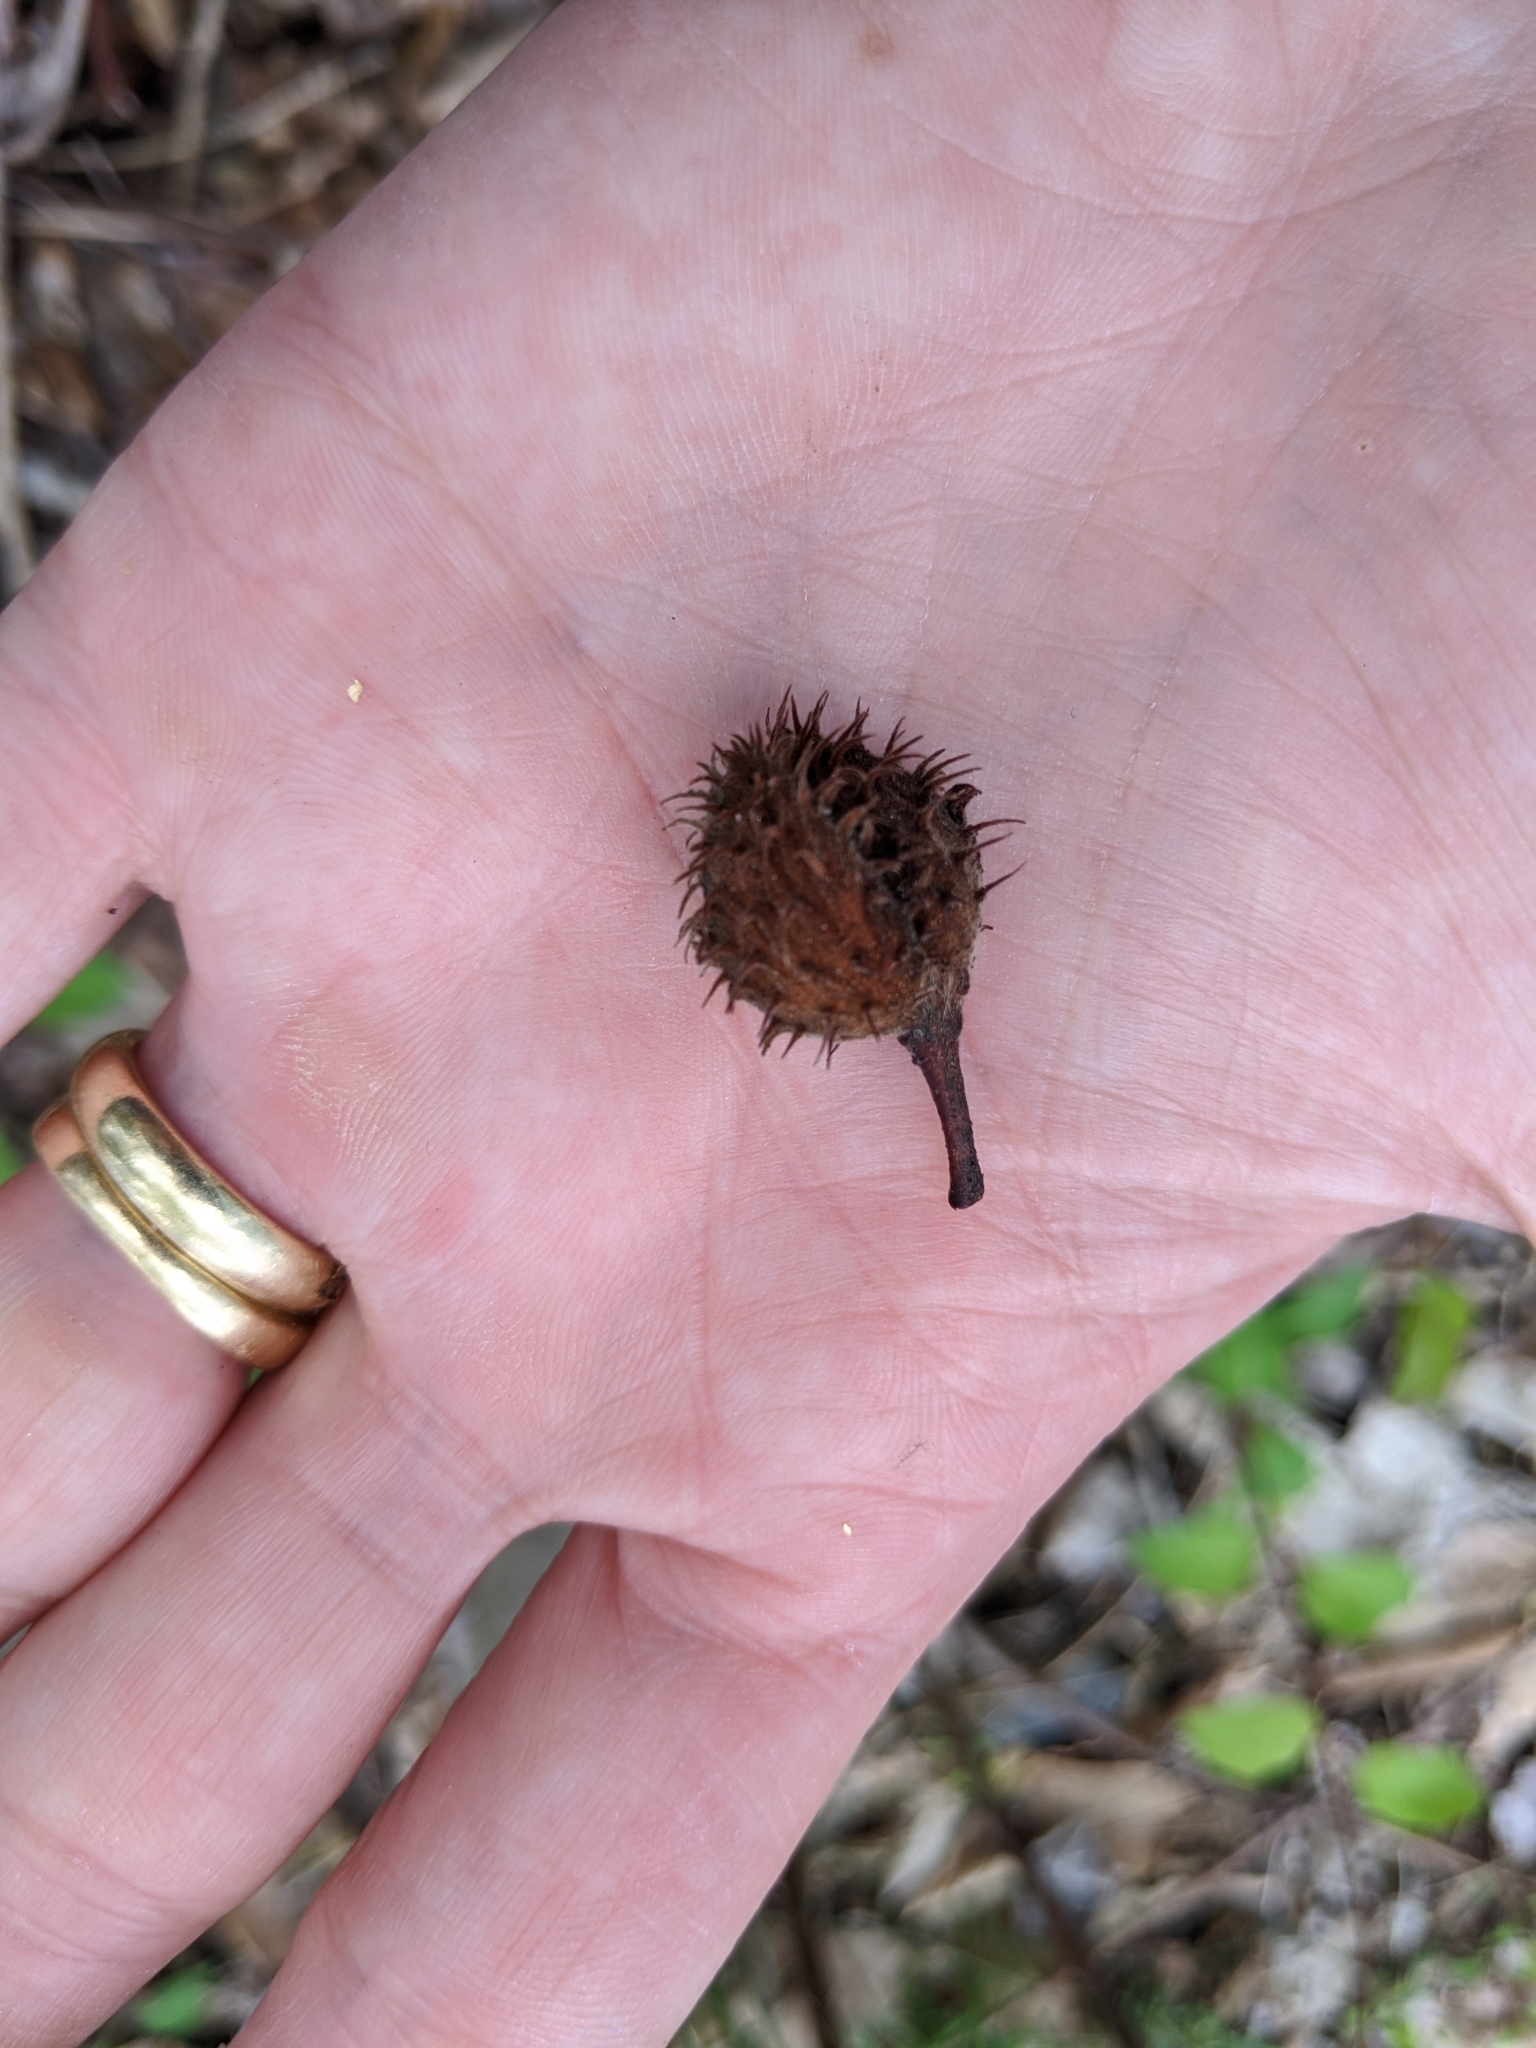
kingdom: Plantae
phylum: Tracheophyta
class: Magnoliopsida
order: Fagales
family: Fagaceae
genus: Fagus
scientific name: Fagus grandifolia
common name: American beech
